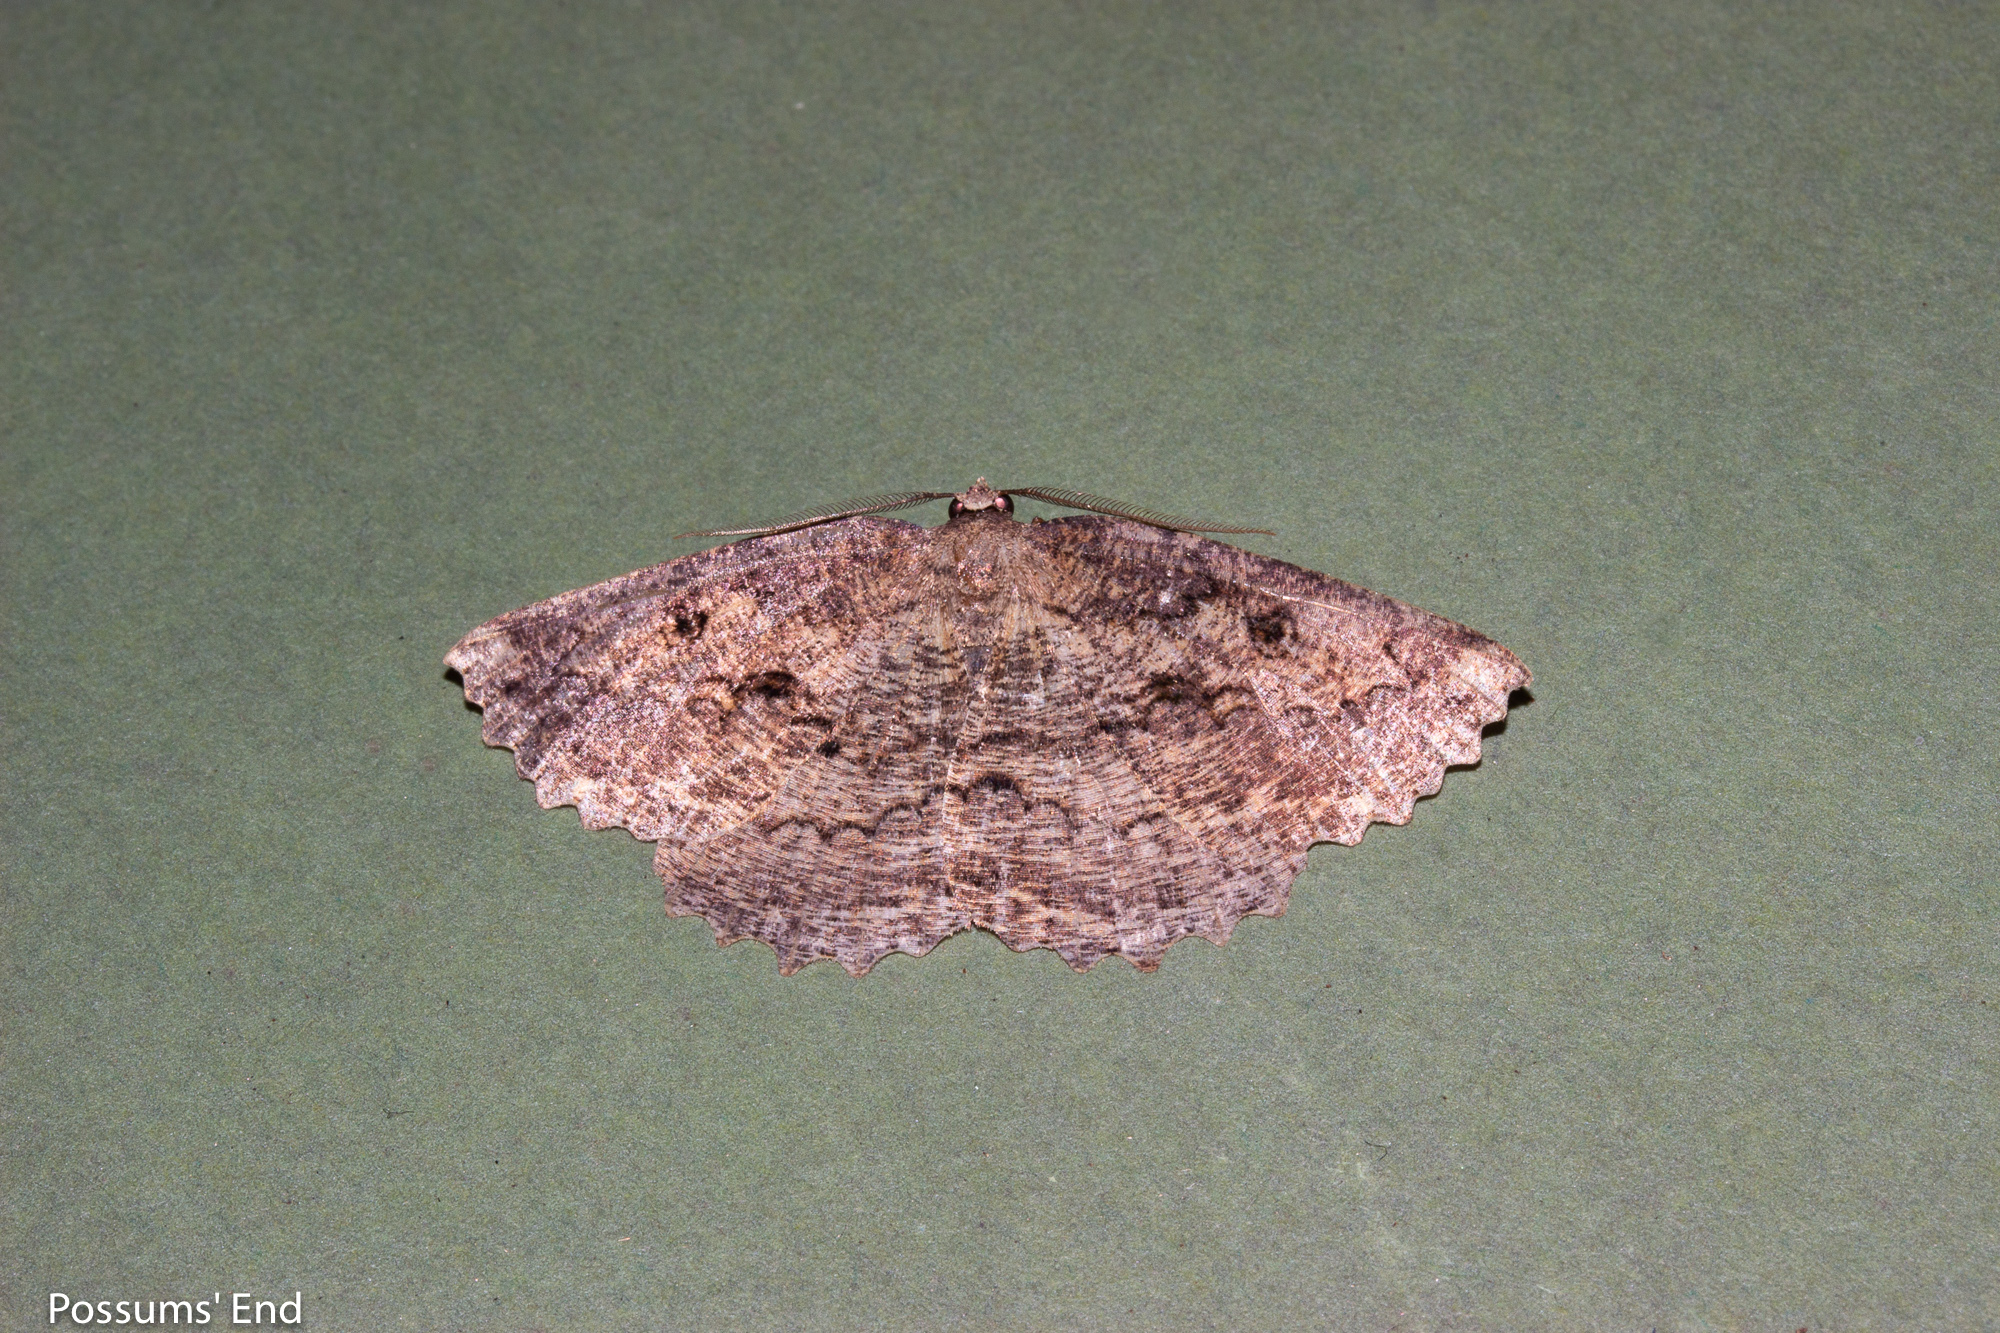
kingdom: Animalia
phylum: Arthropoda
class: Insecta
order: Lepidoptera
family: Geometridae
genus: Gellonia
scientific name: Gellonia pannularia
